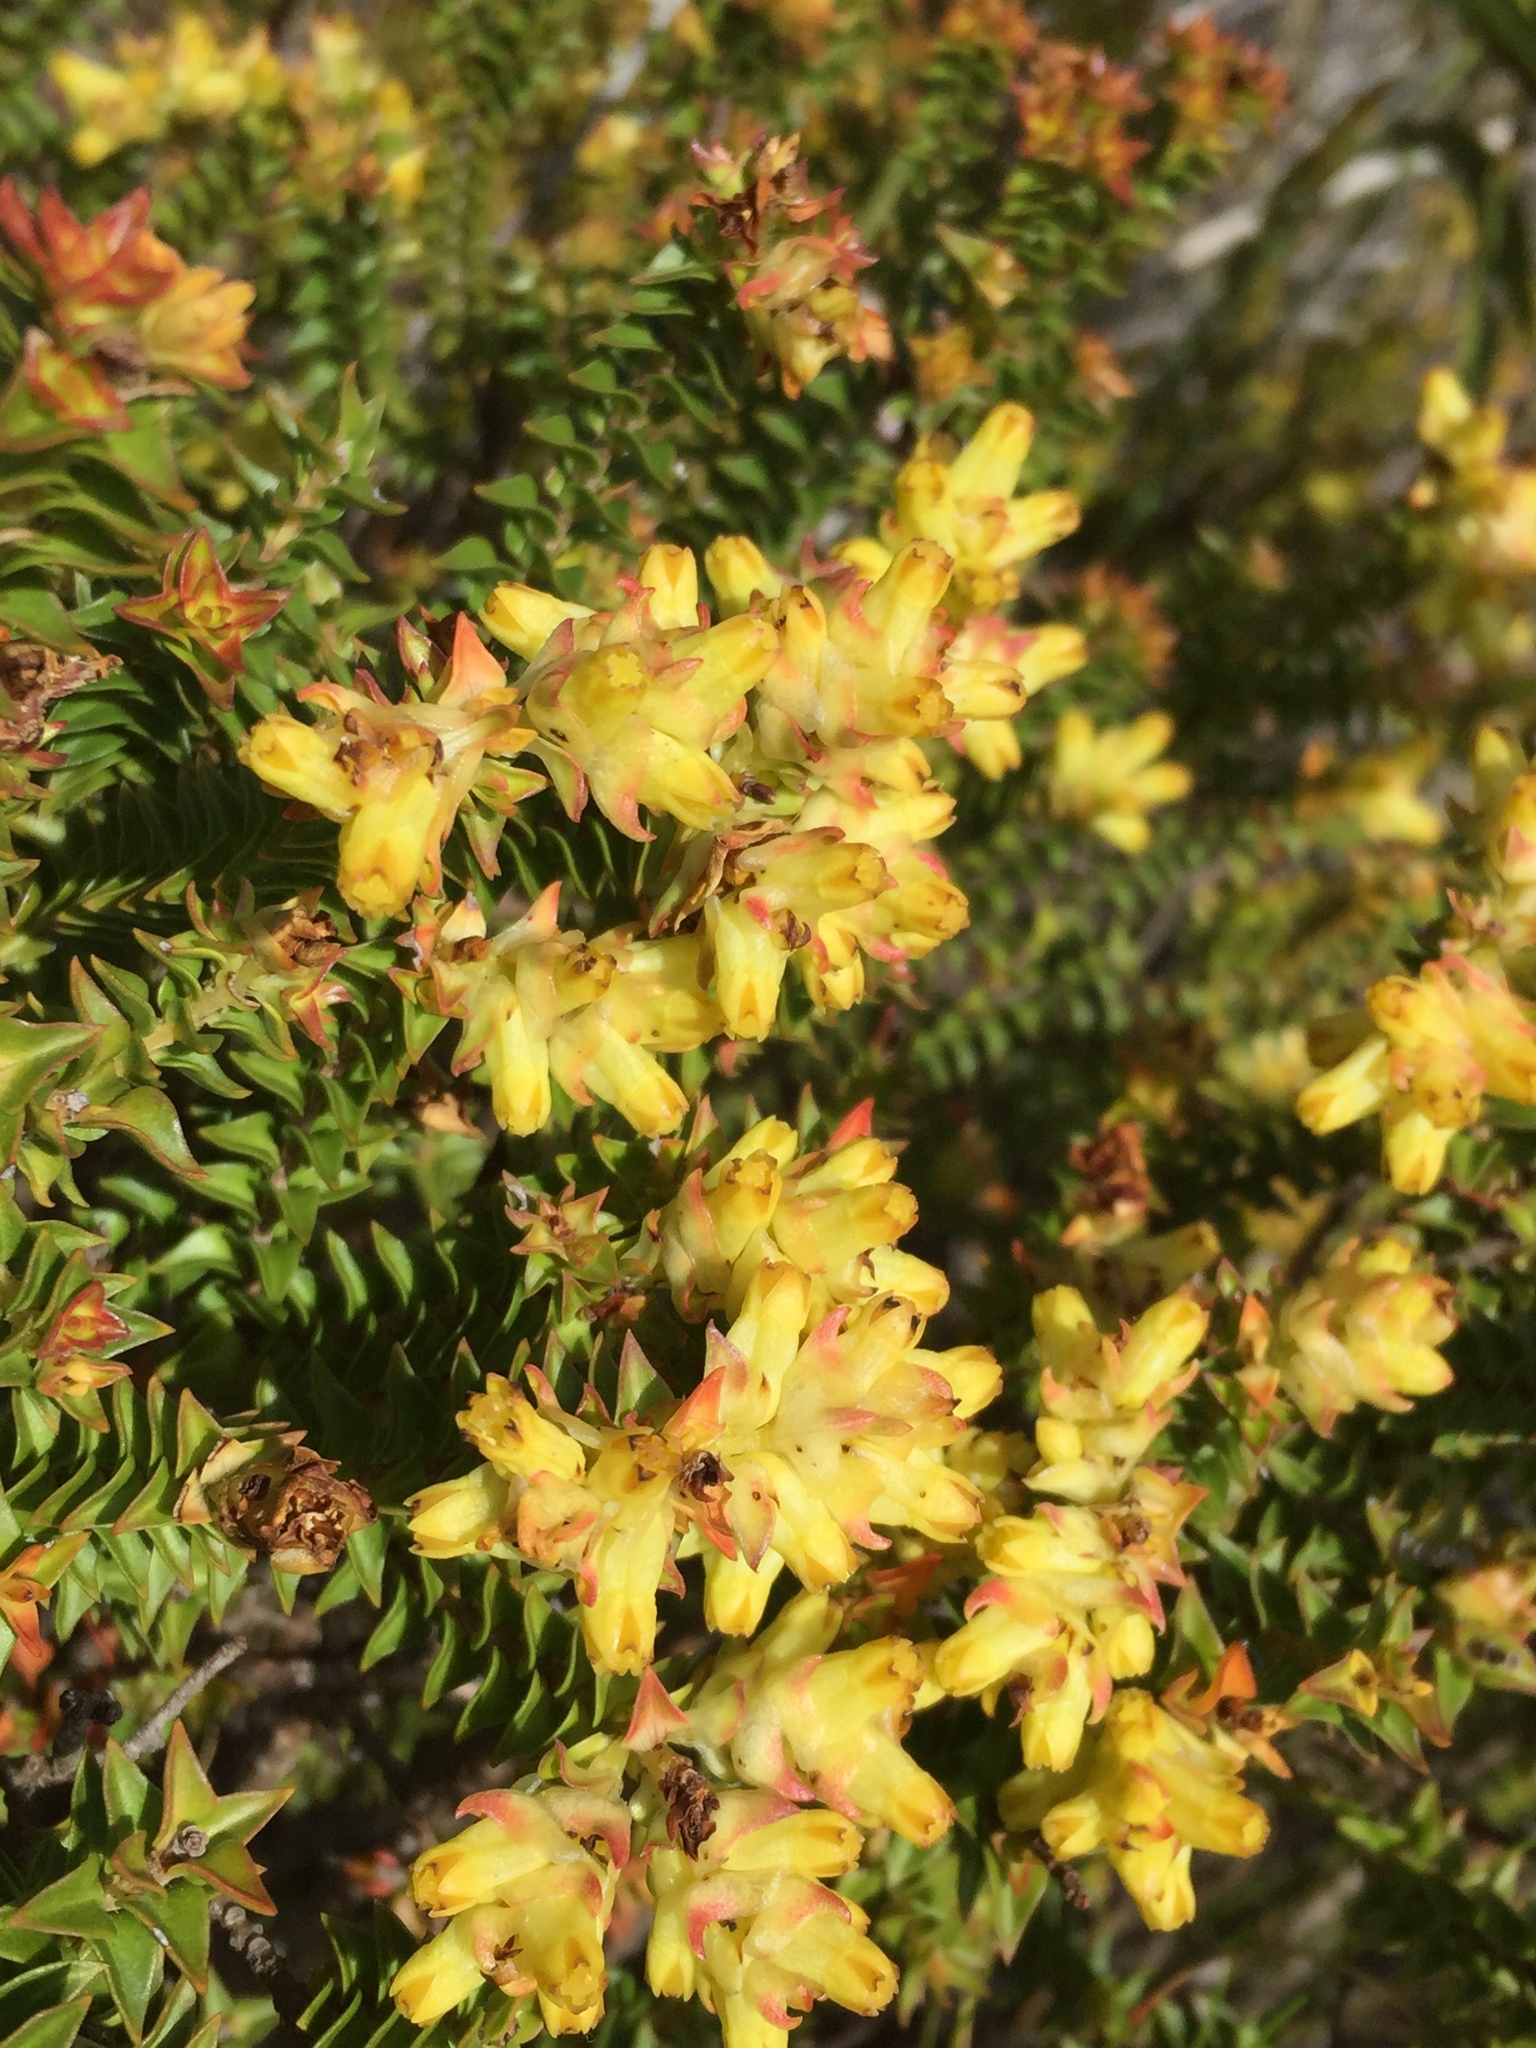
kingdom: Plantae
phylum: Tracheophyta
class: Magnoliopsida
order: Myrtales
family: Penaeaceae
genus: Penaea
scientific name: Penaea mucronata
